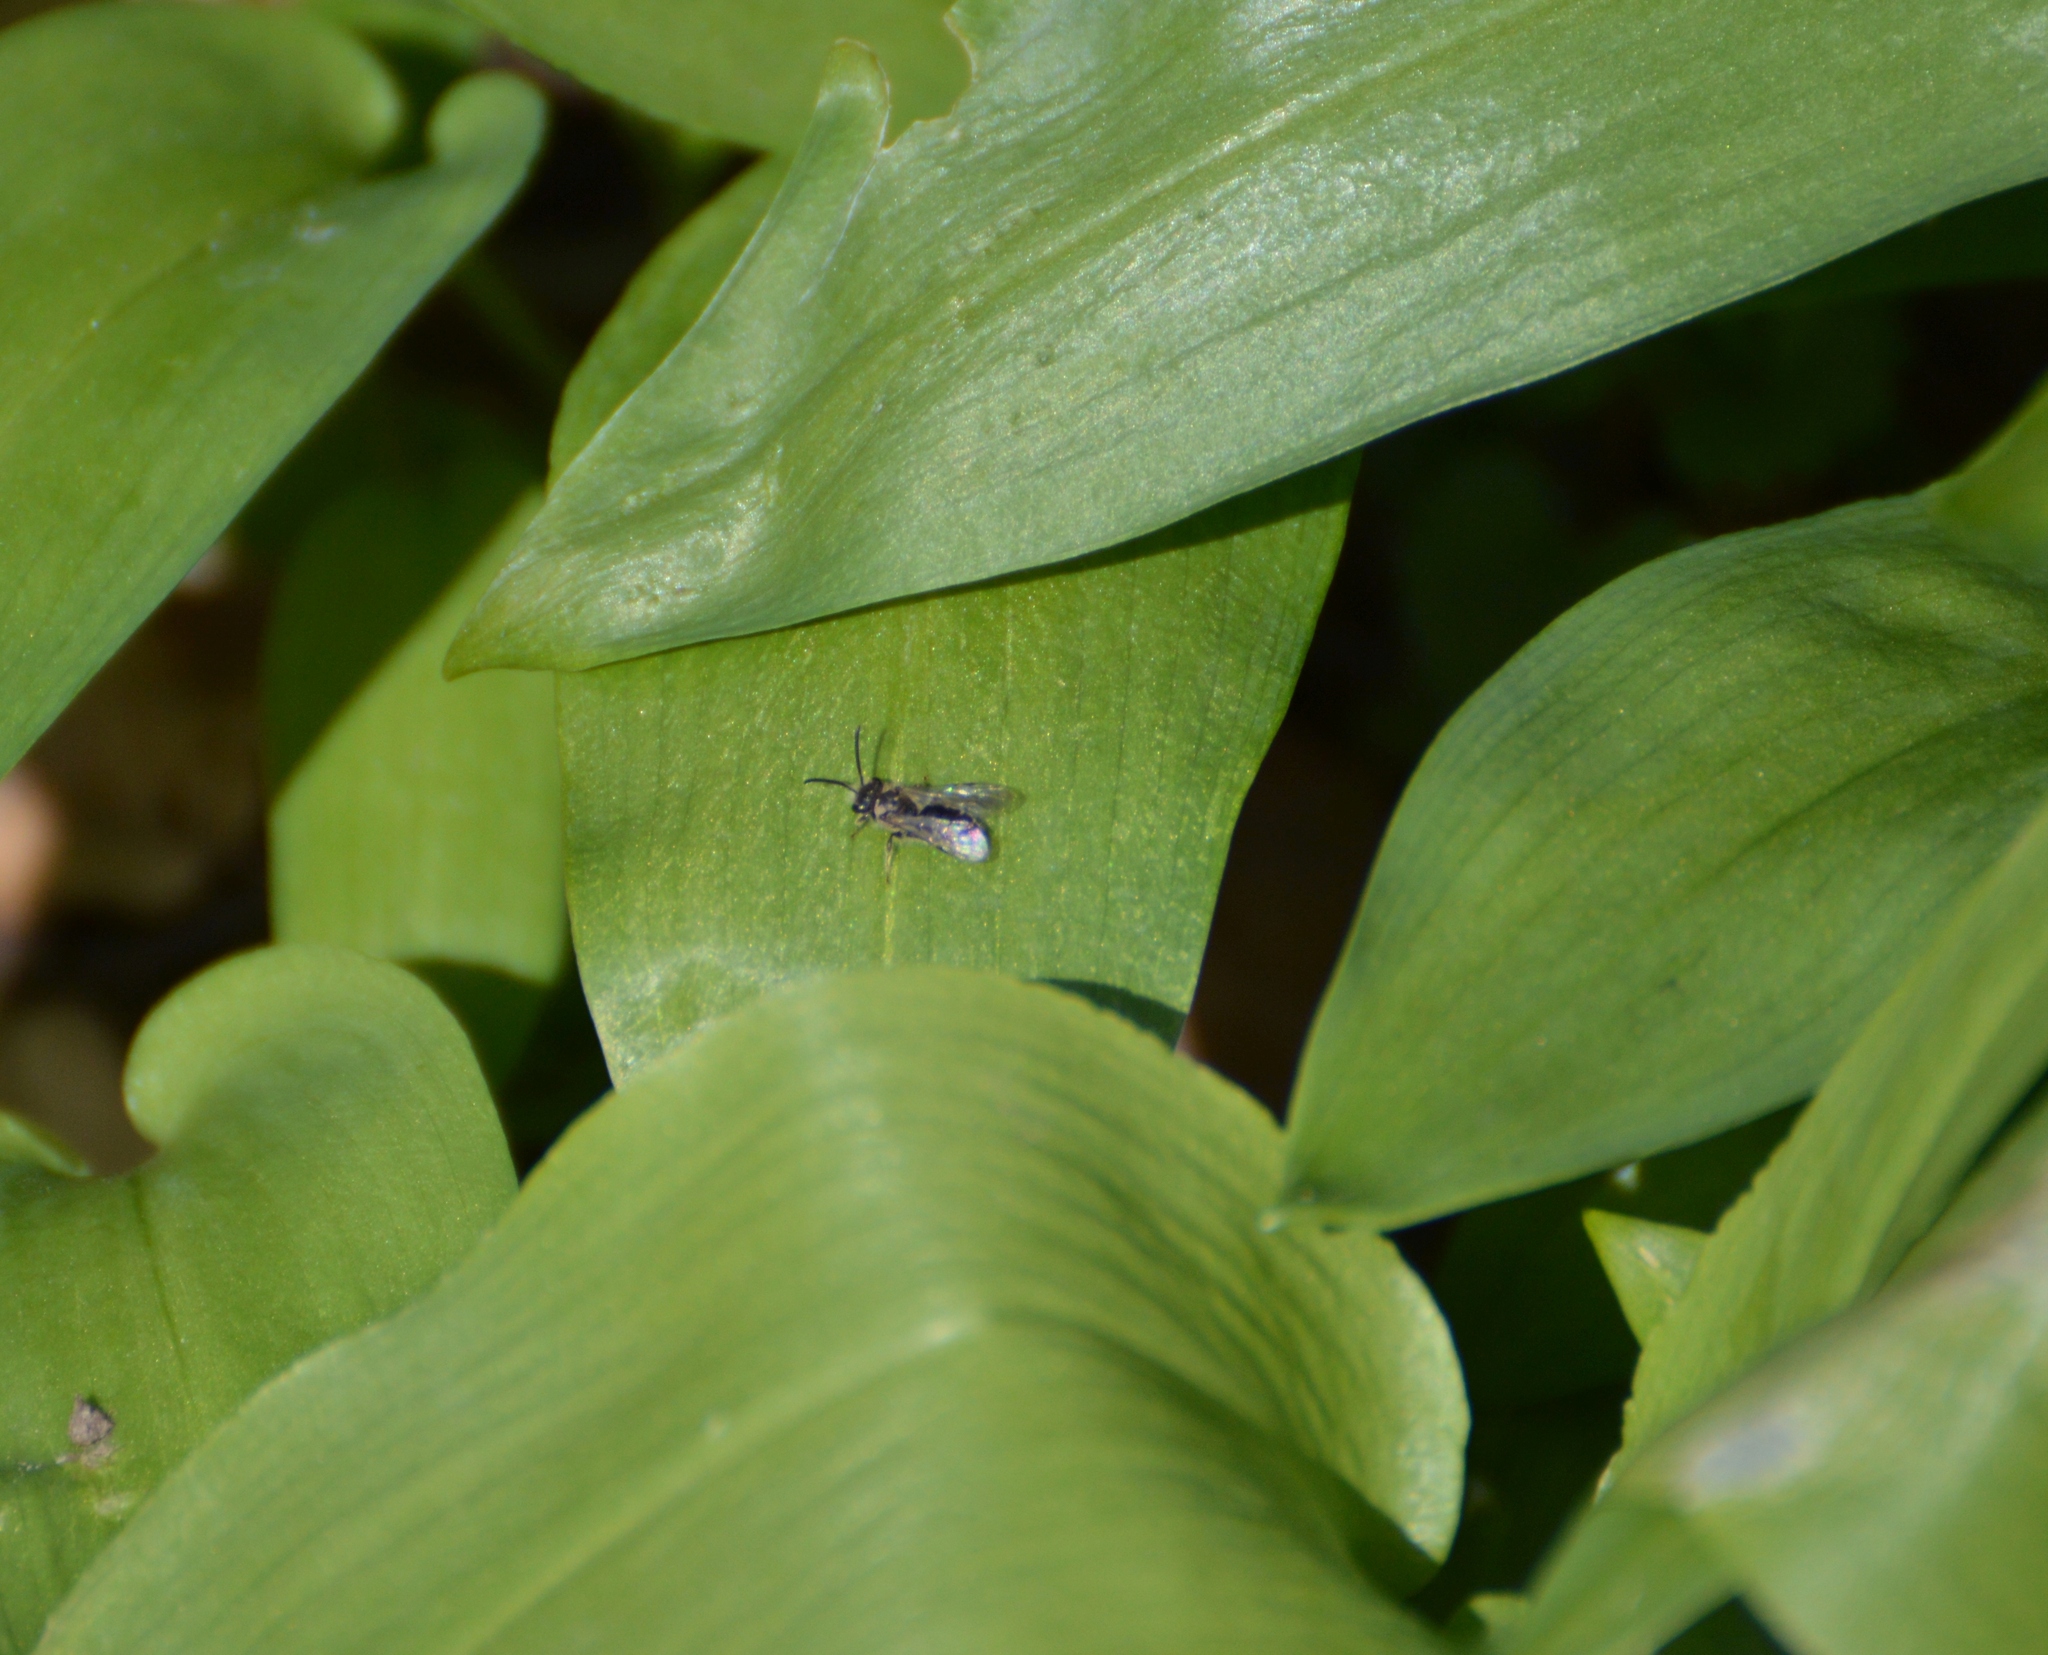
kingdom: Animalia
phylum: Arthropoda
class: Insecta
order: Hymenoptera
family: Andrenidae
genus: Andrena
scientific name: Andrena
